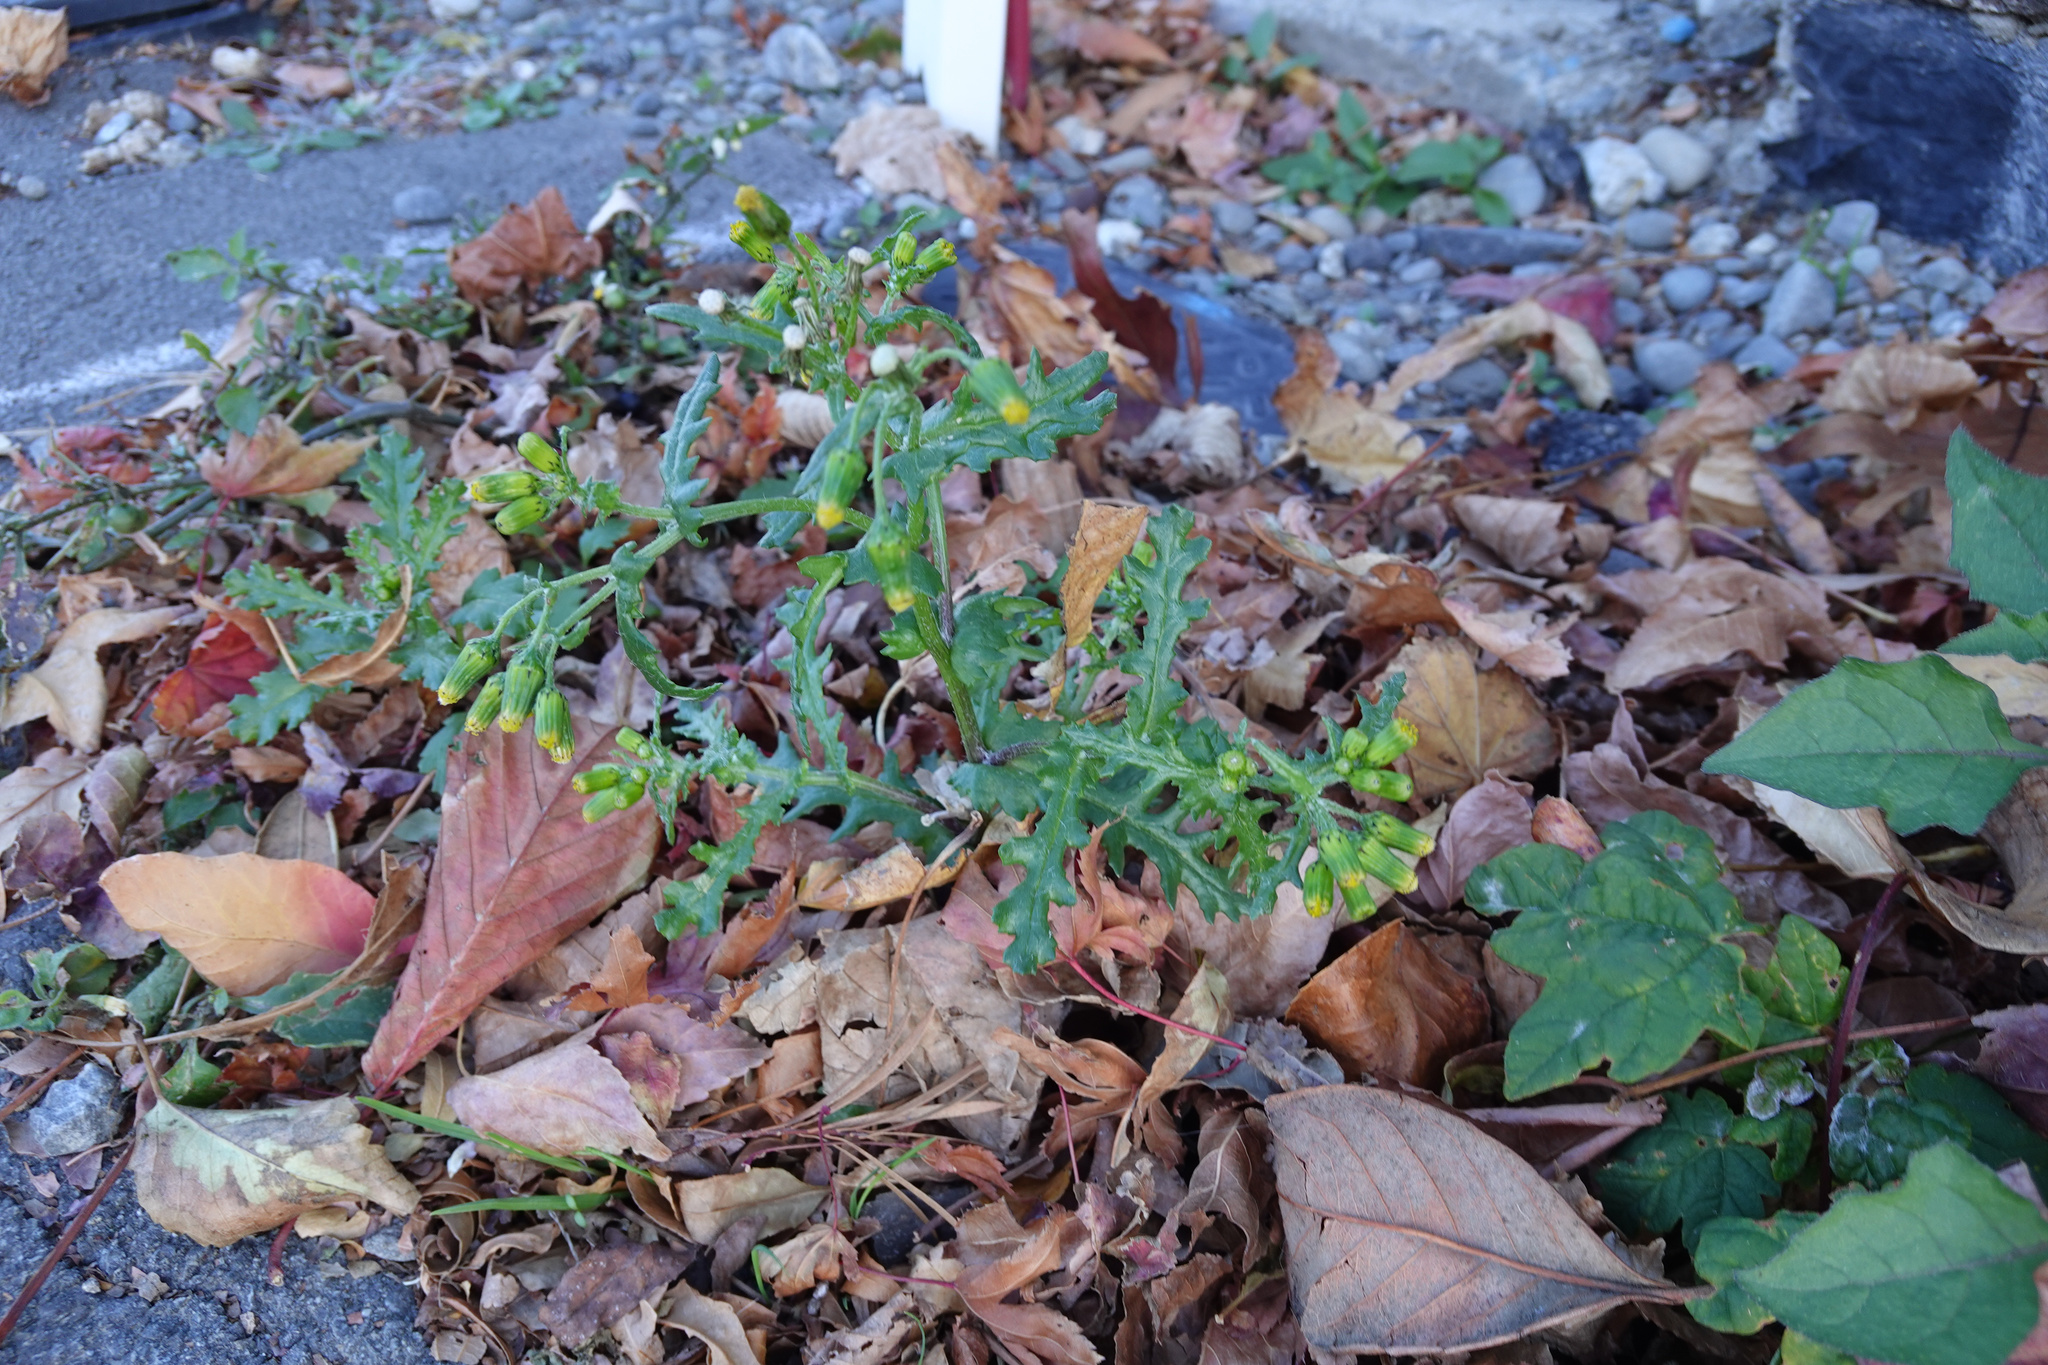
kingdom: Plantae
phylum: Tracheophyta
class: Magnoliopsida
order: Asterales
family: Asteraceae
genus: Senecio
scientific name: Senecio vulgaris
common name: Old-man-in-the-spring
